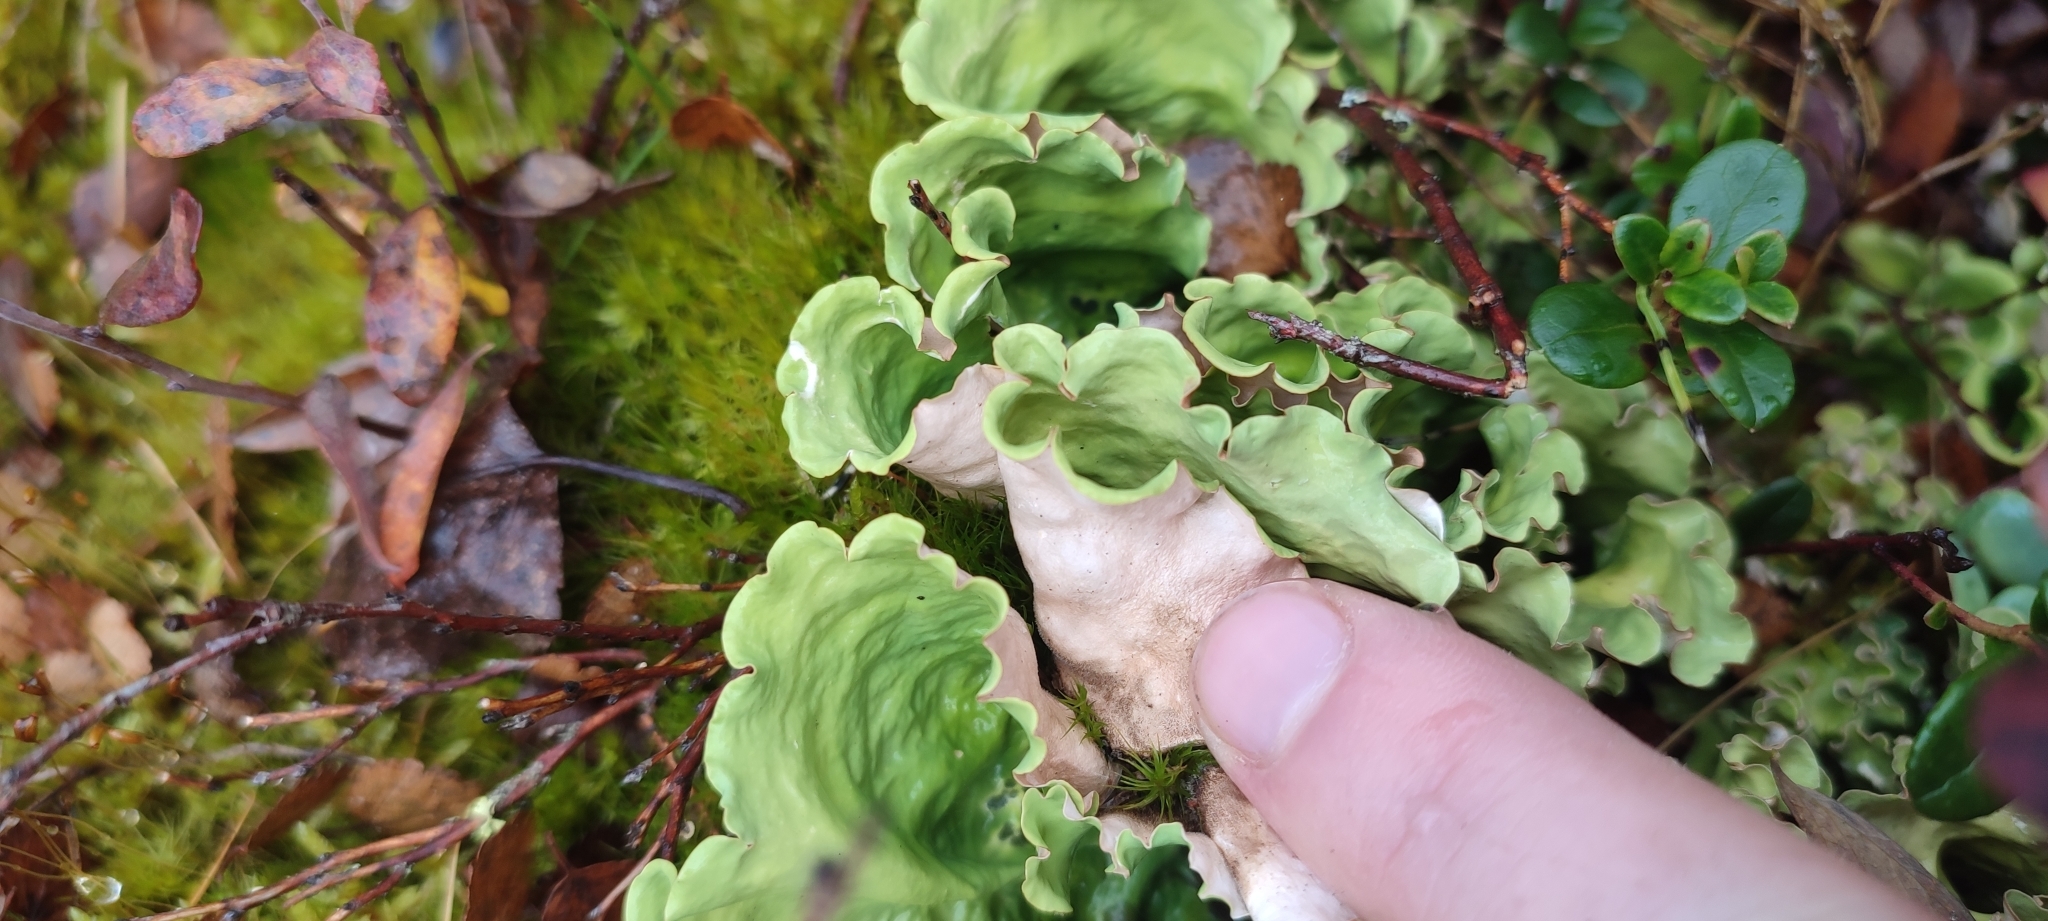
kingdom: Fungi
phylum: Ascomycota
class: Lecanoromycetes
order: Peltigerales
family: Nephromataceae
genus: Nephroma
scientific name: Nephroma arcticum
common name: Arctic kidney-lichen
